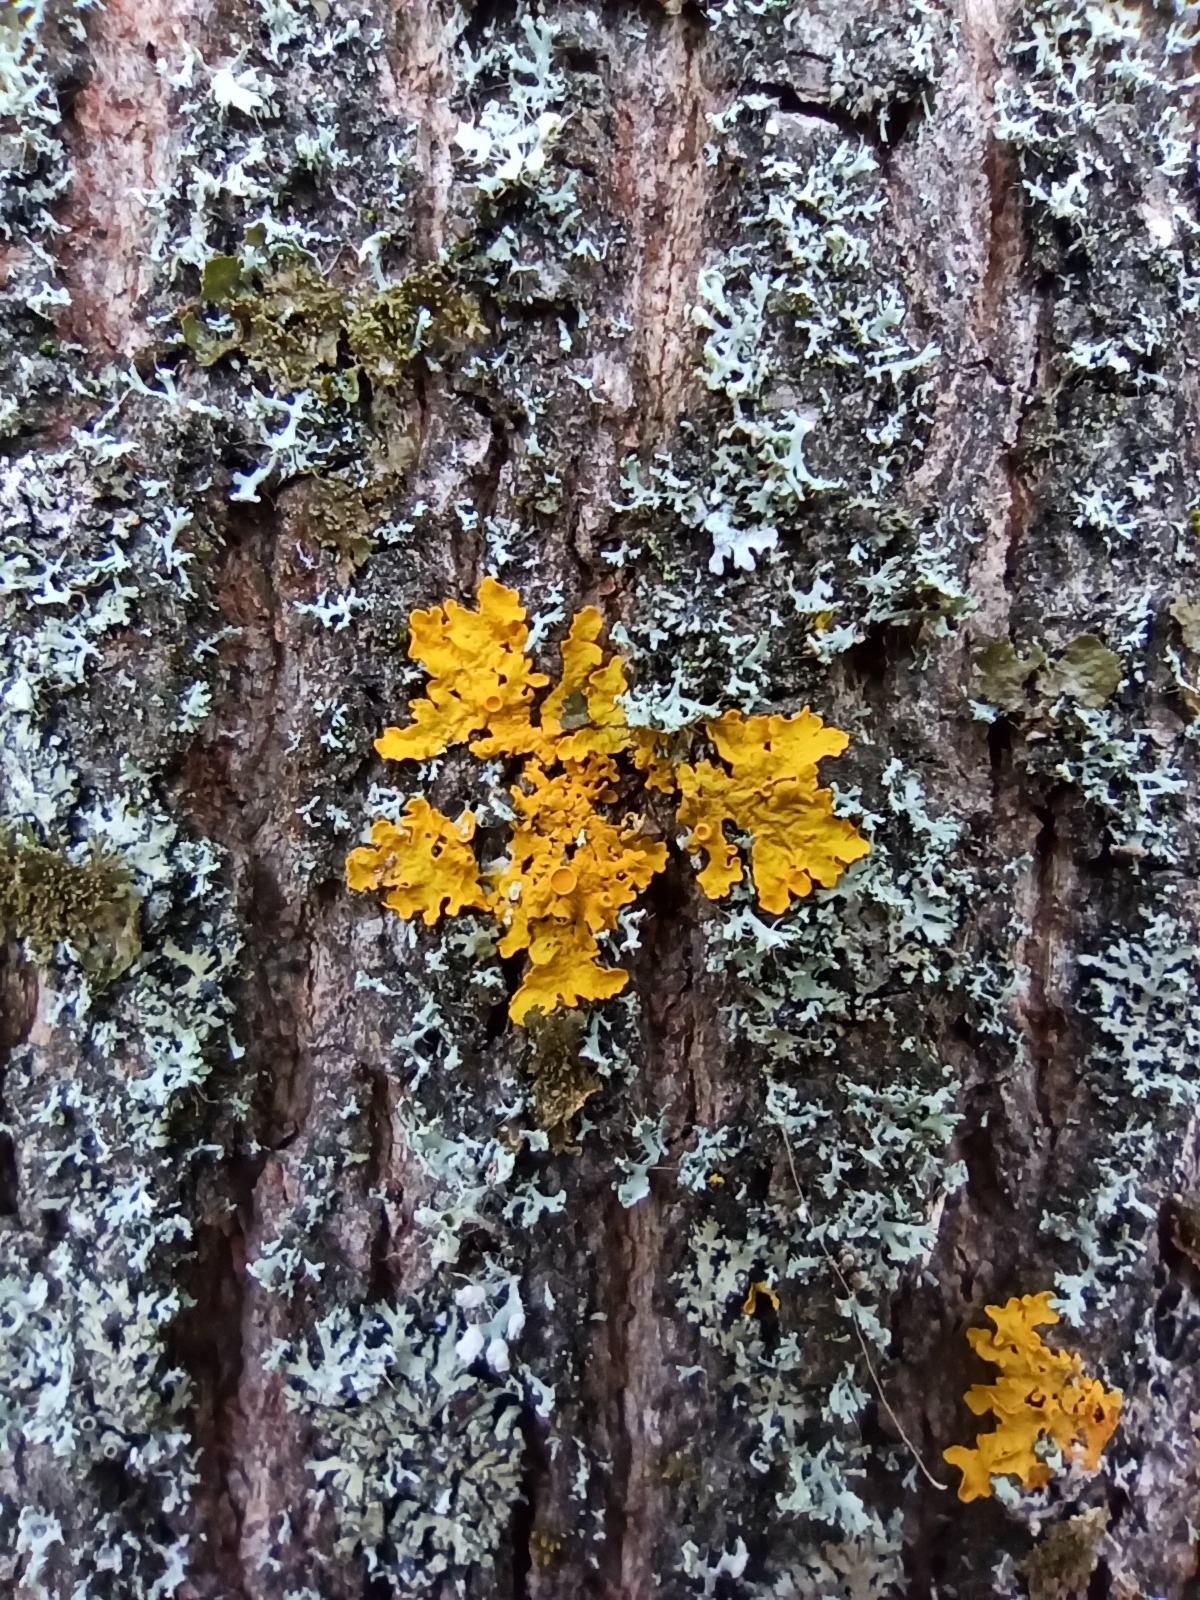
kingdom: Fungi
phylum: Ascomycota
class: Lecanoromycetes
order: Teloschistales
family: Teloschistaceae
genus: Xanthoria
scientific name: Xanthoria parietina
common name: Common orange lichen
